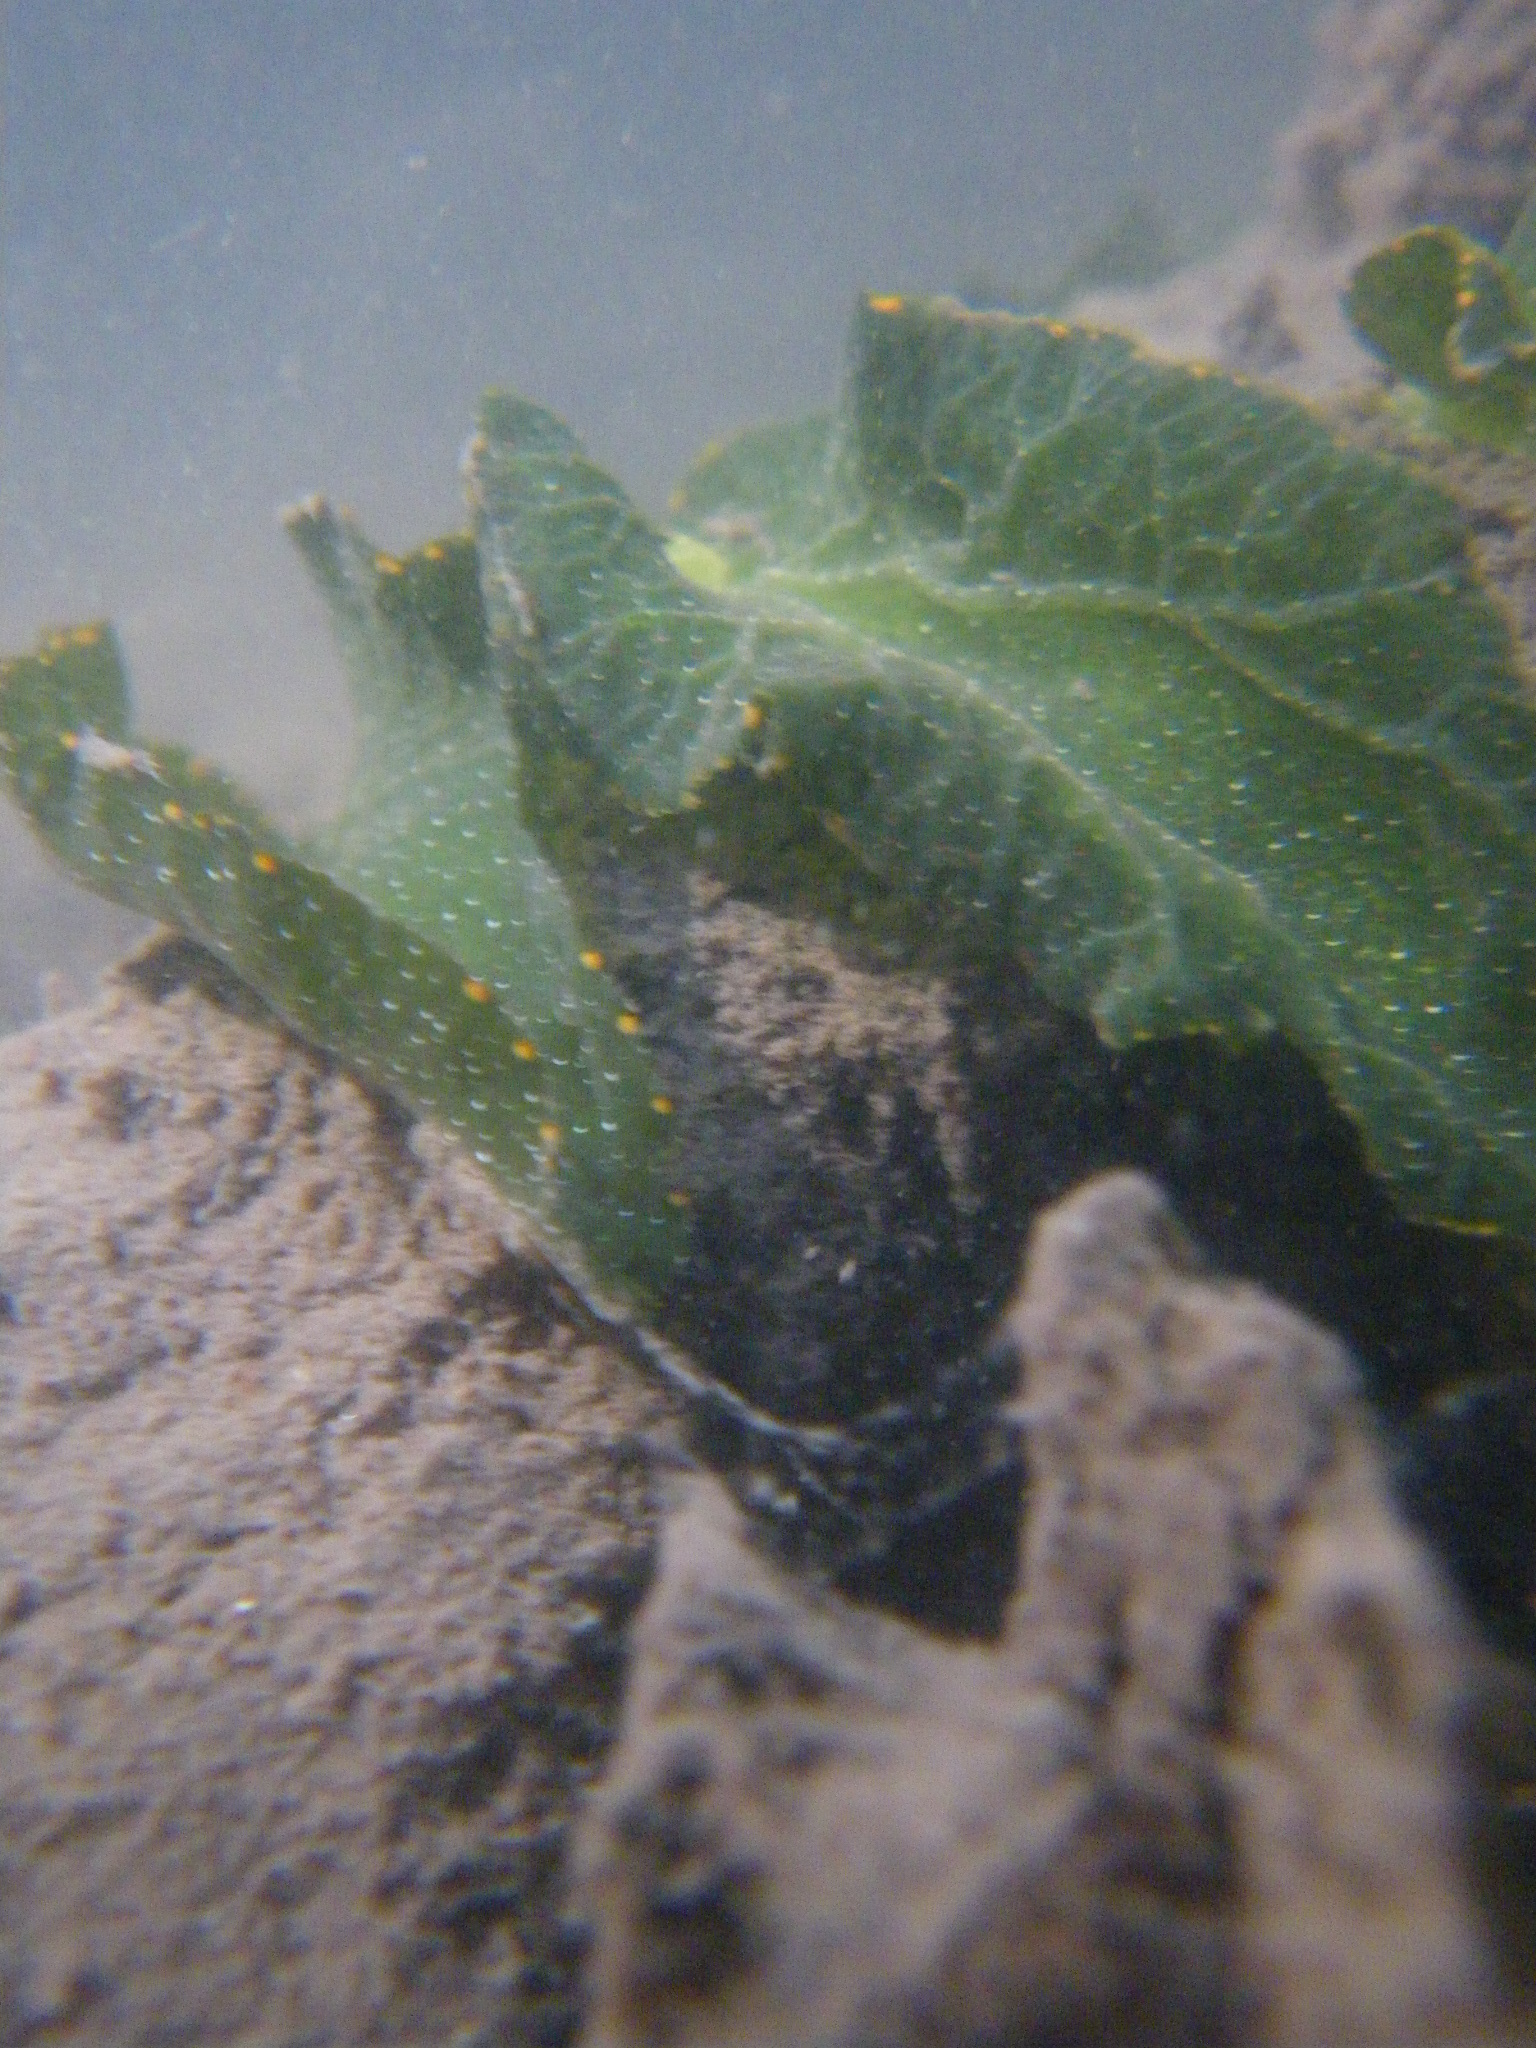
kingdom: Animalia
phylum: Mollusca
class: Gastropoda
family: Plakobranchidae
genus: Elysia
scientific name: Elysia bangtawaensis
